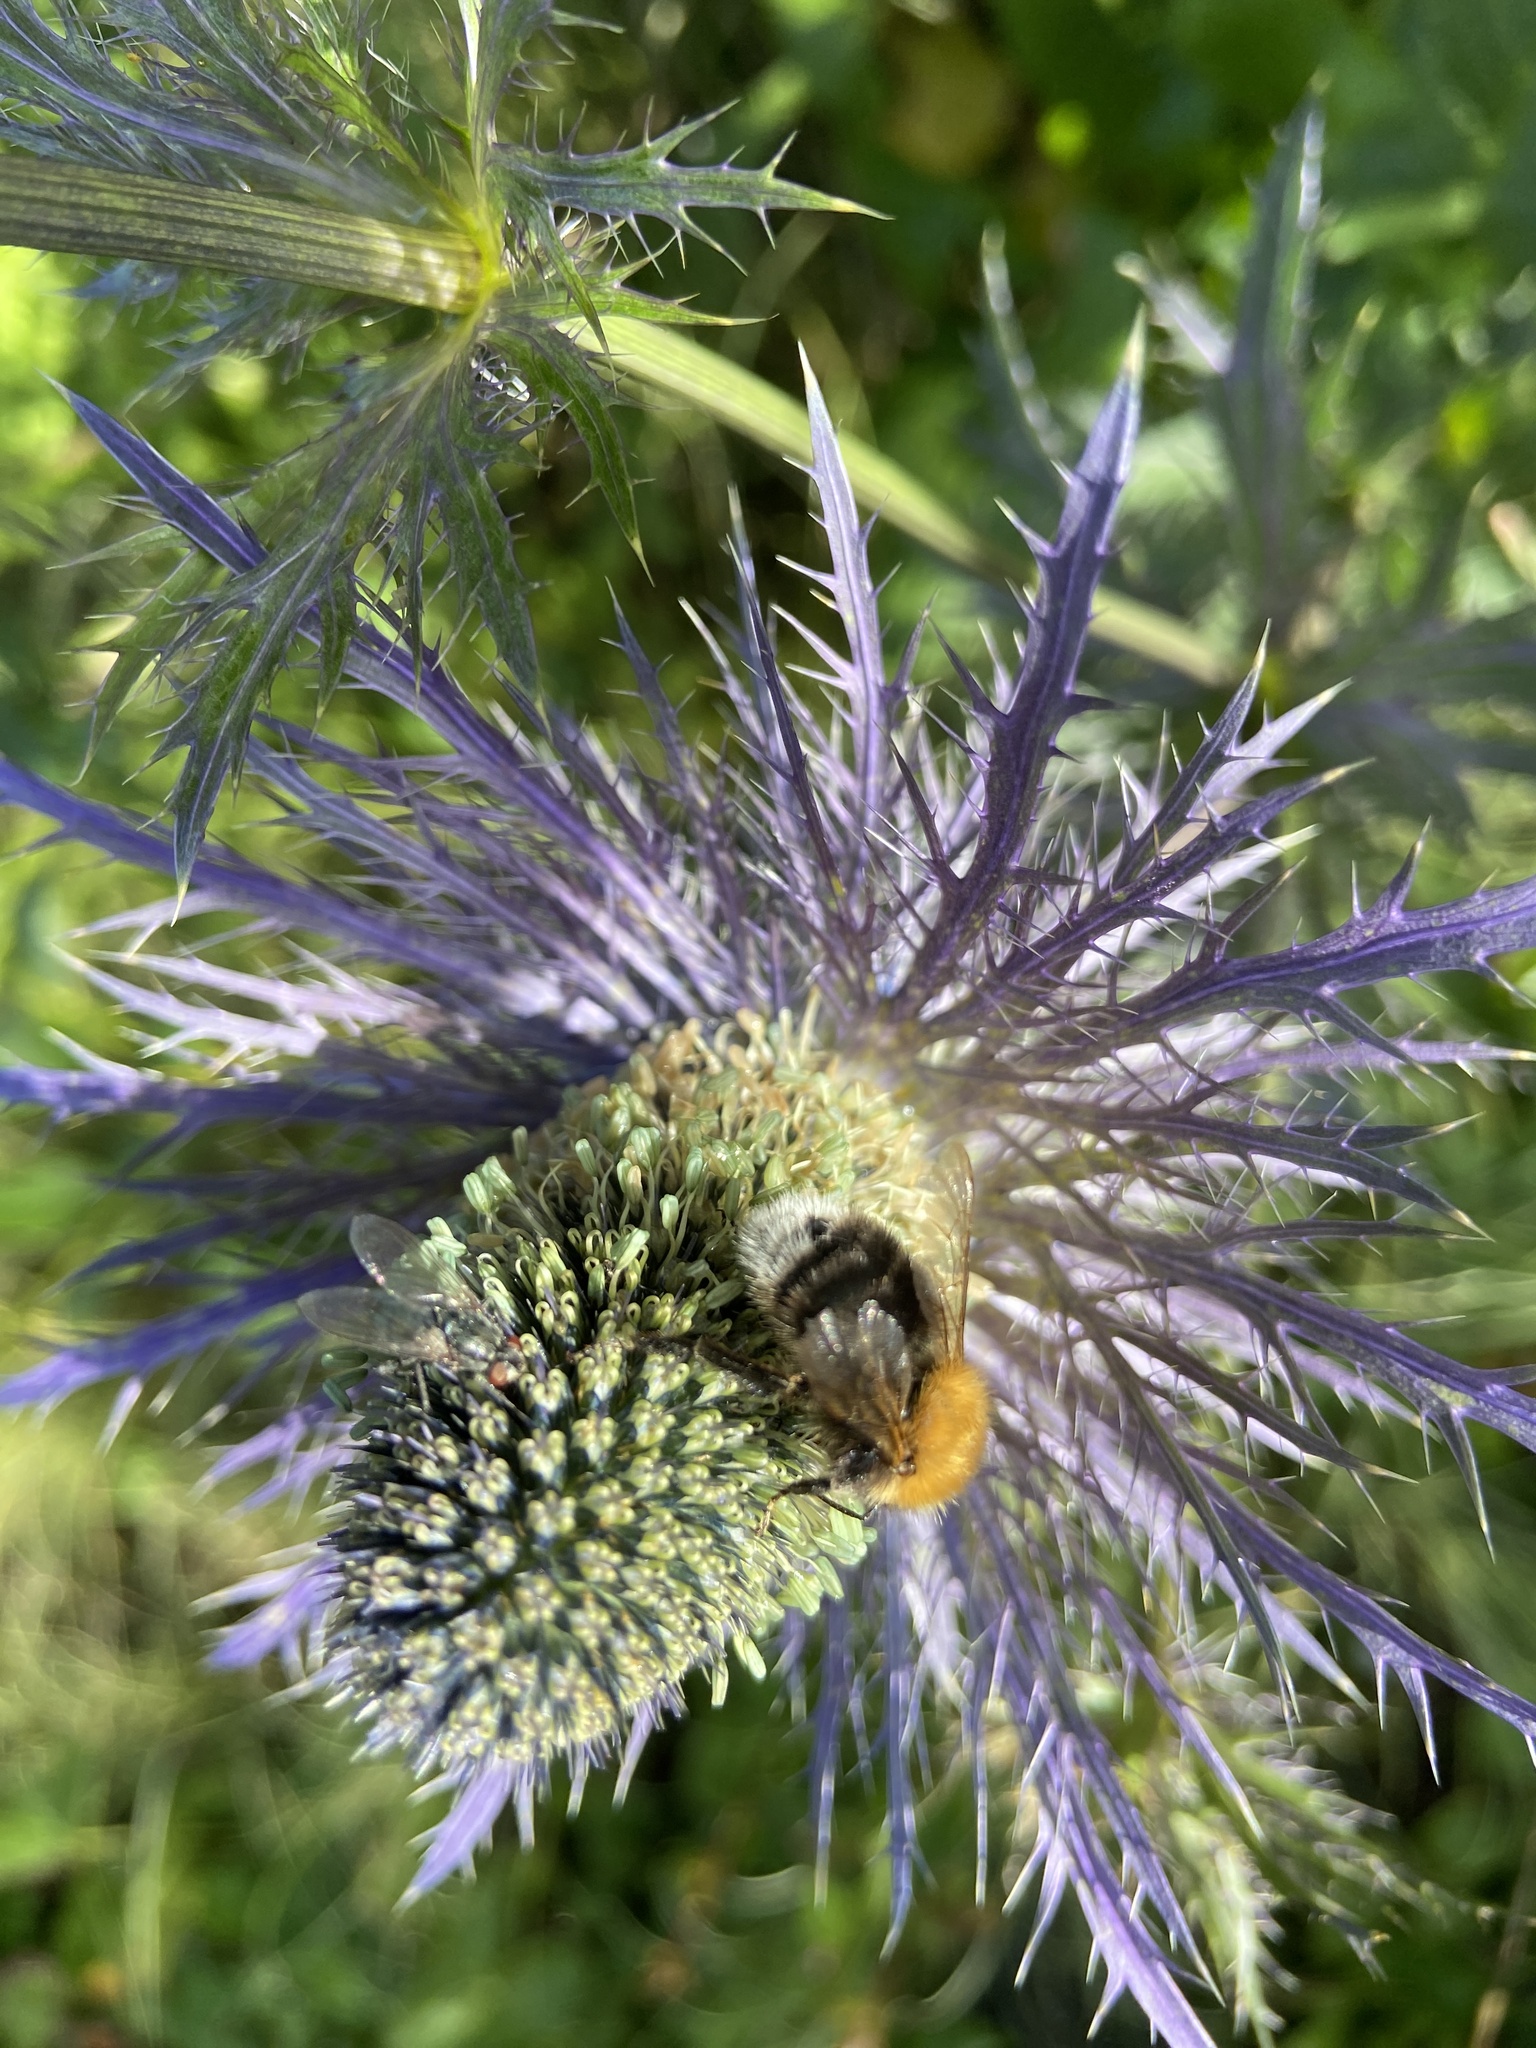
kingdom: Animalia
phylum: Arthropoda
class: Insecta
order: Hymenoptera
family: Apidae
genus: Bombus
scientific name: Bombus hypnorum
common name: New garden bumblebee
